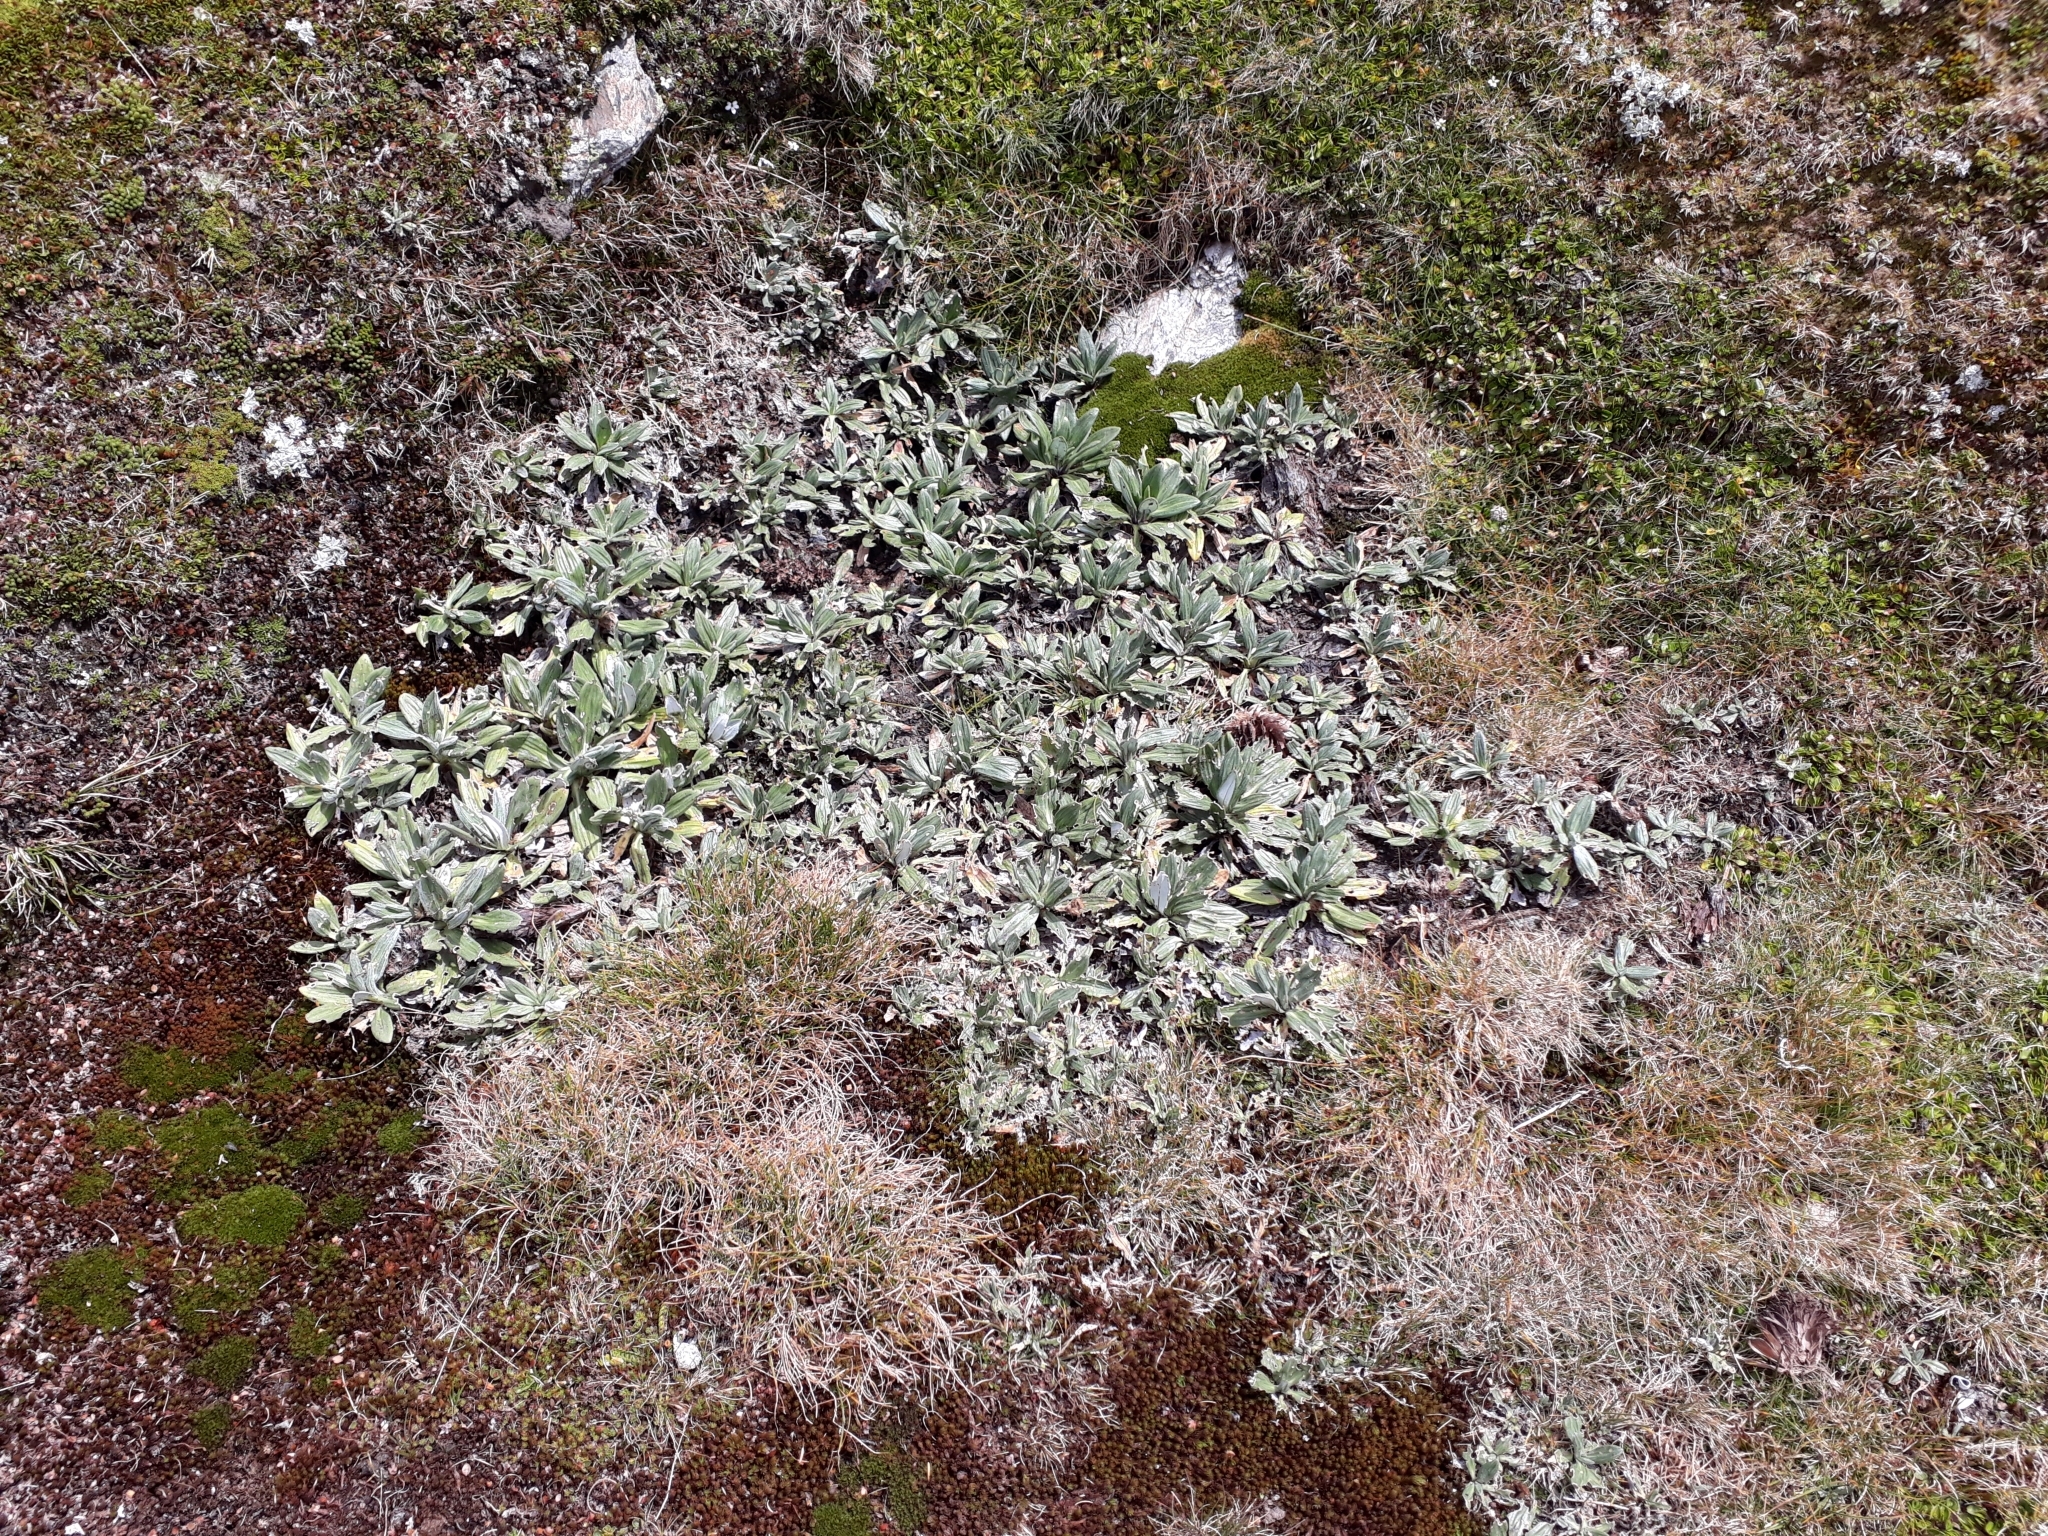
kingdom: Plantae
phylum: Tracheophyta
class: Magnoliopsida
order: Asterales
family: Asteraceae
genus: Celmisia
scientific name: Celmisia haastii
